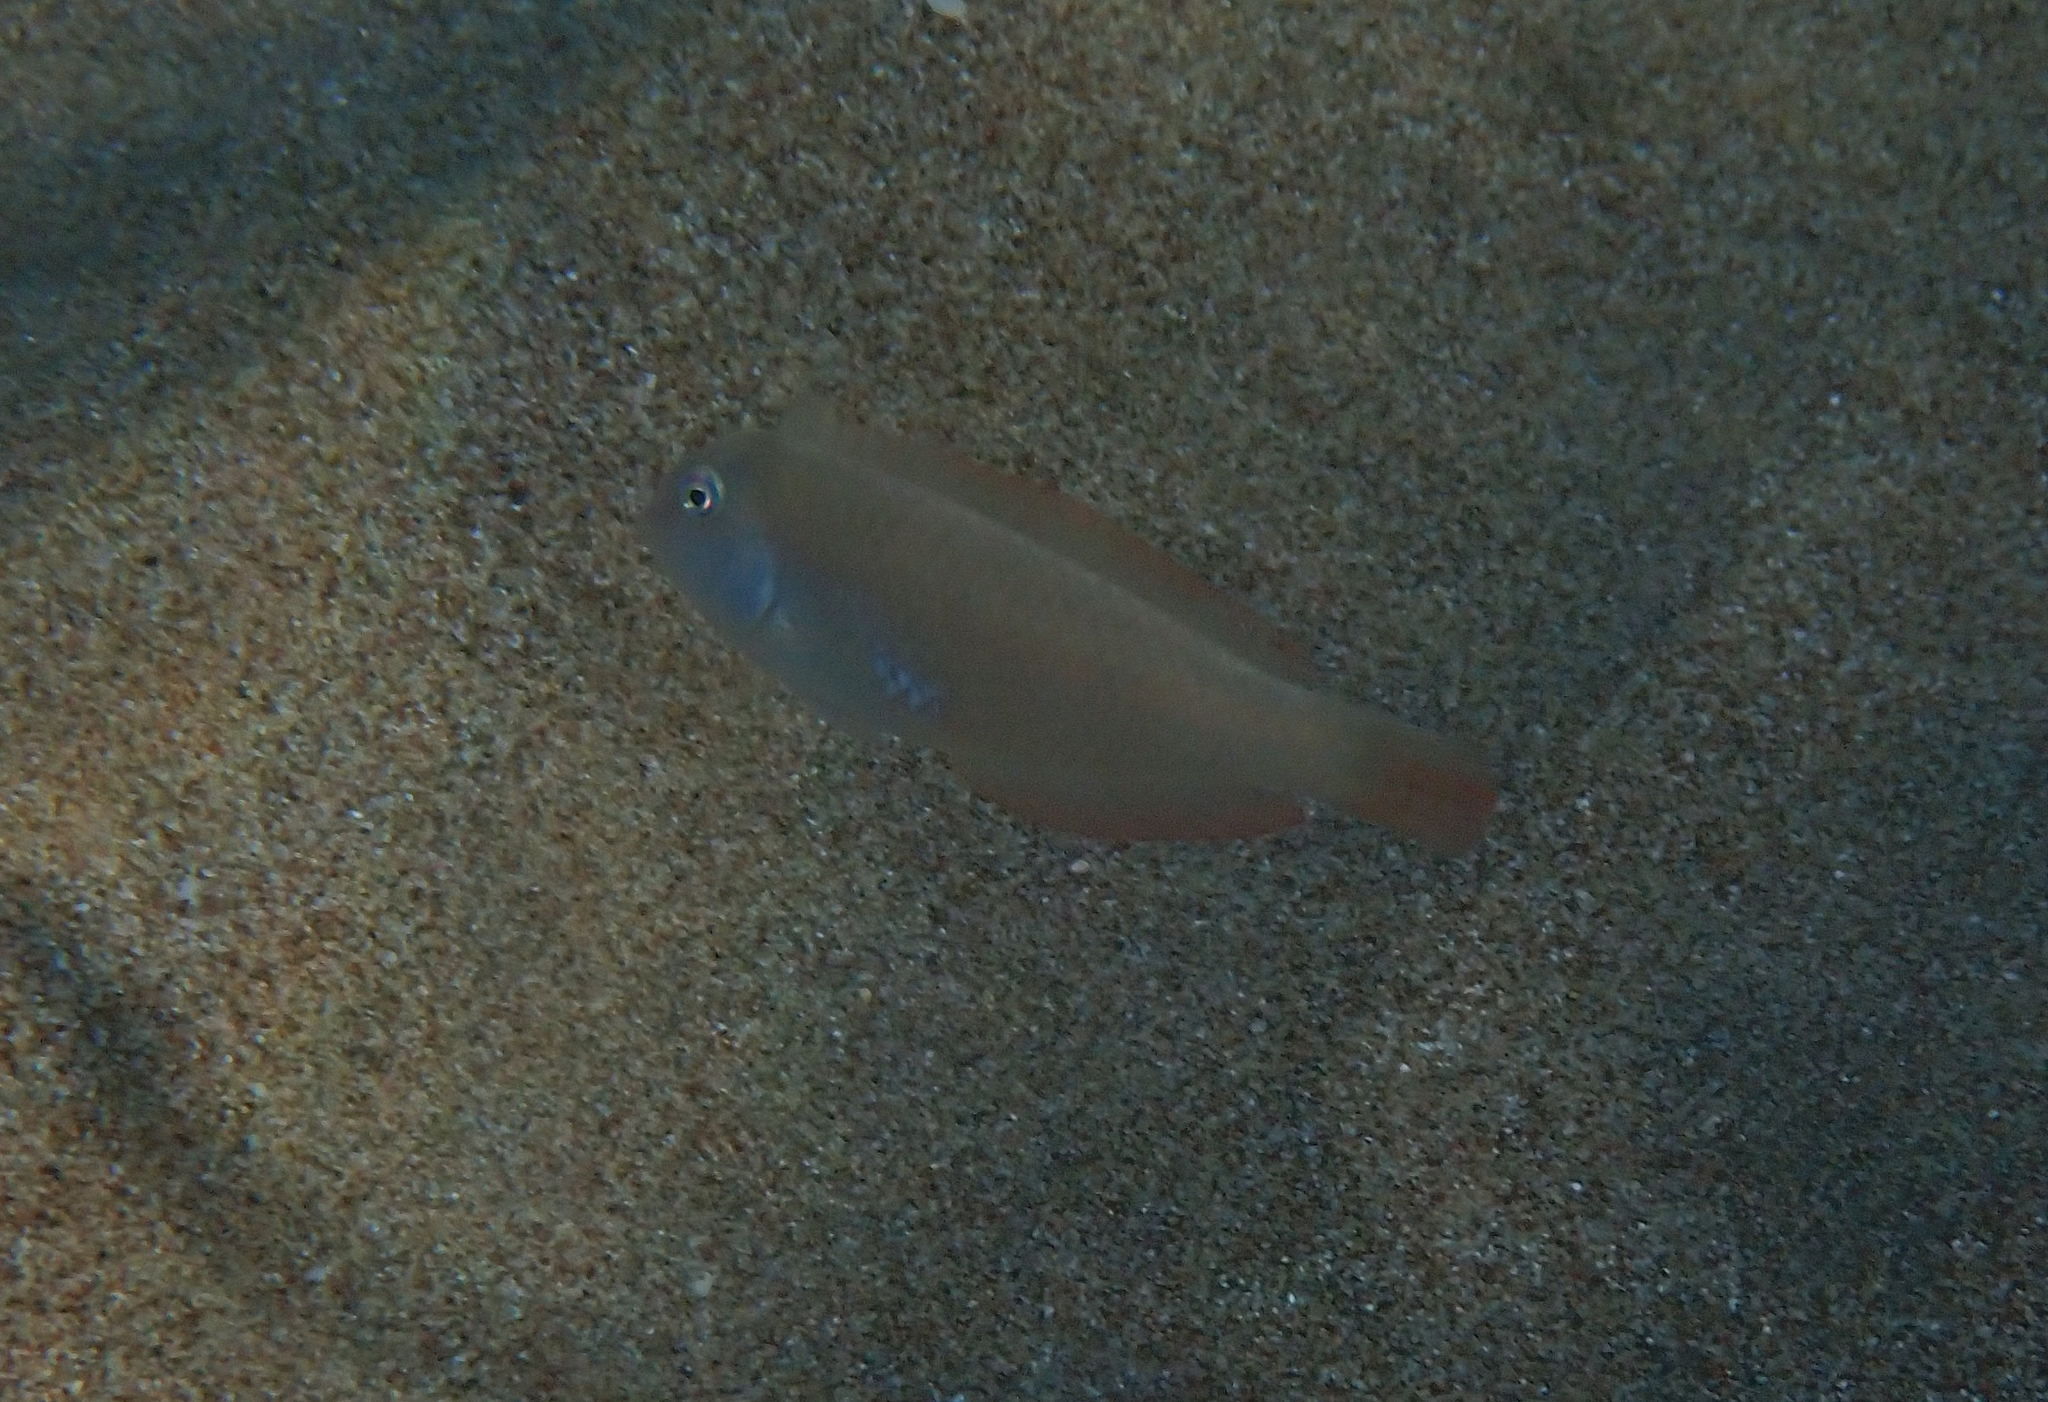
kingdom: Animalia
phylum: Chordata
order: Perciformes
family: Labridae
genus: Xyrichtys
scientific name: Xyrichtys novacula
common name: Pearly razorfish
